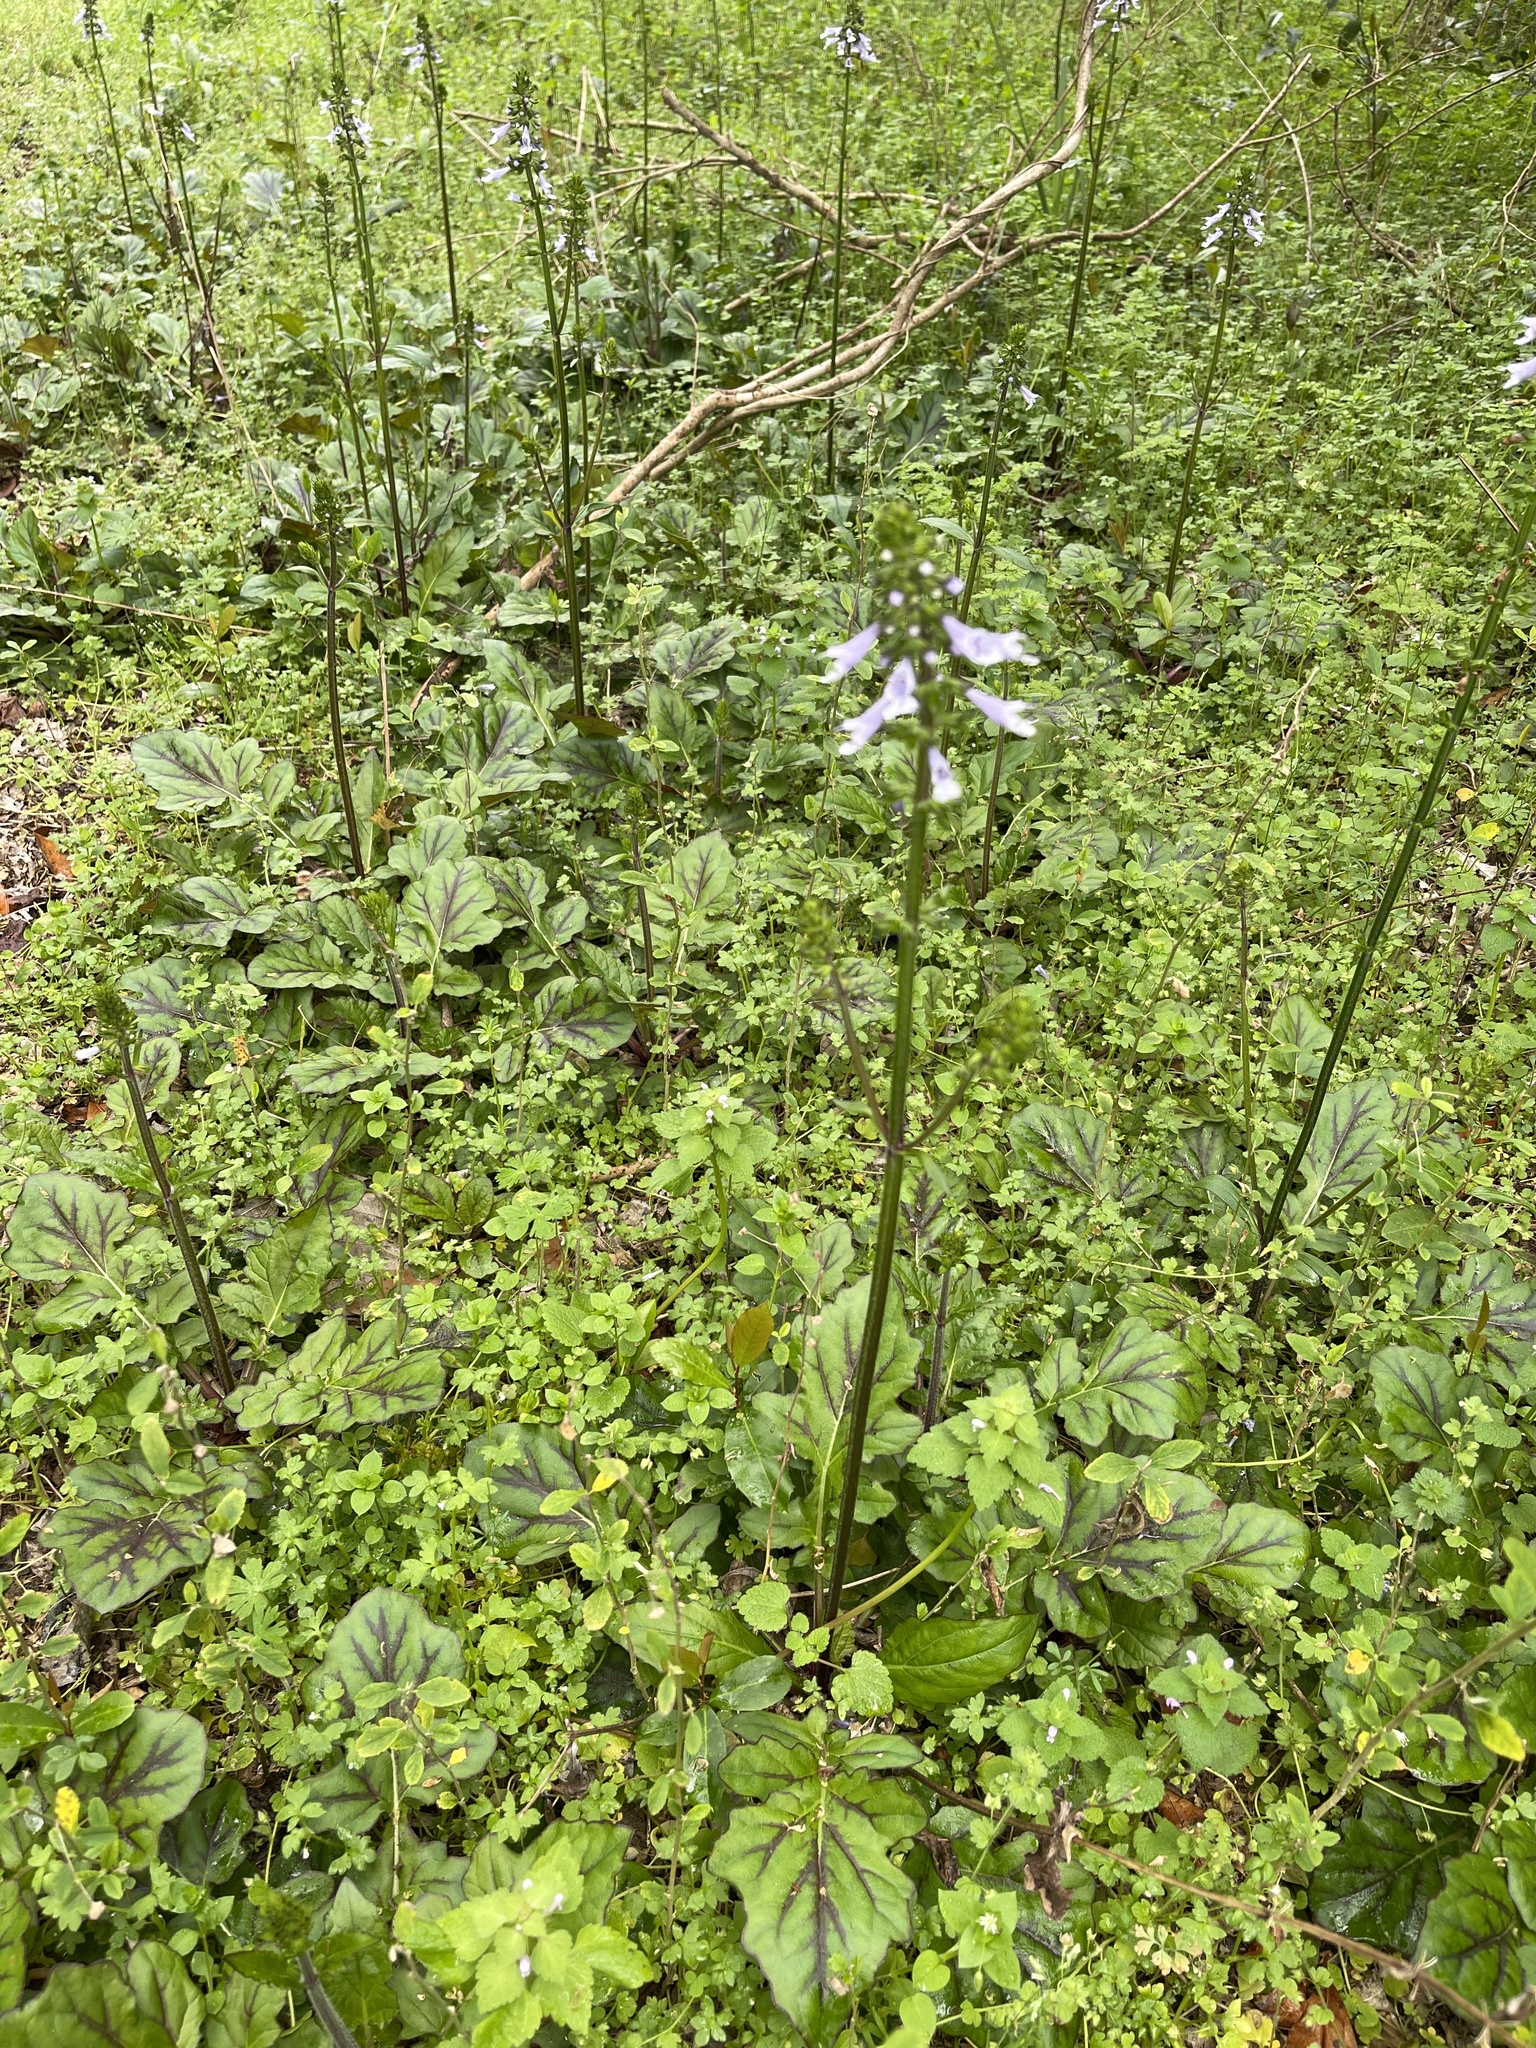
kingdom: Plantae
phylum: Tracheophyta
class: Magnoliopsida
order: Lamiales
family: Lamiaceae
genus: Salvia
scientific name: Salvia lyrata
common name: Cancerweed
